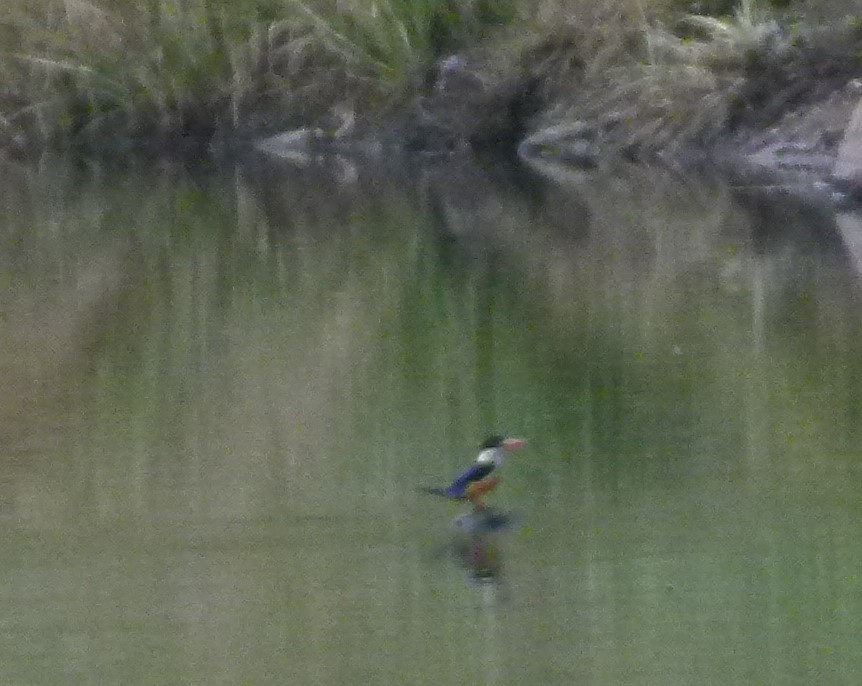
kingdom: Animalia
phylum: Chordata
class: Aves
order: Coraciiformes
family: Alcedinidae
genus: Halcyon
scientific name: Halcyon pileata
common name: Black-capped kingfisher
